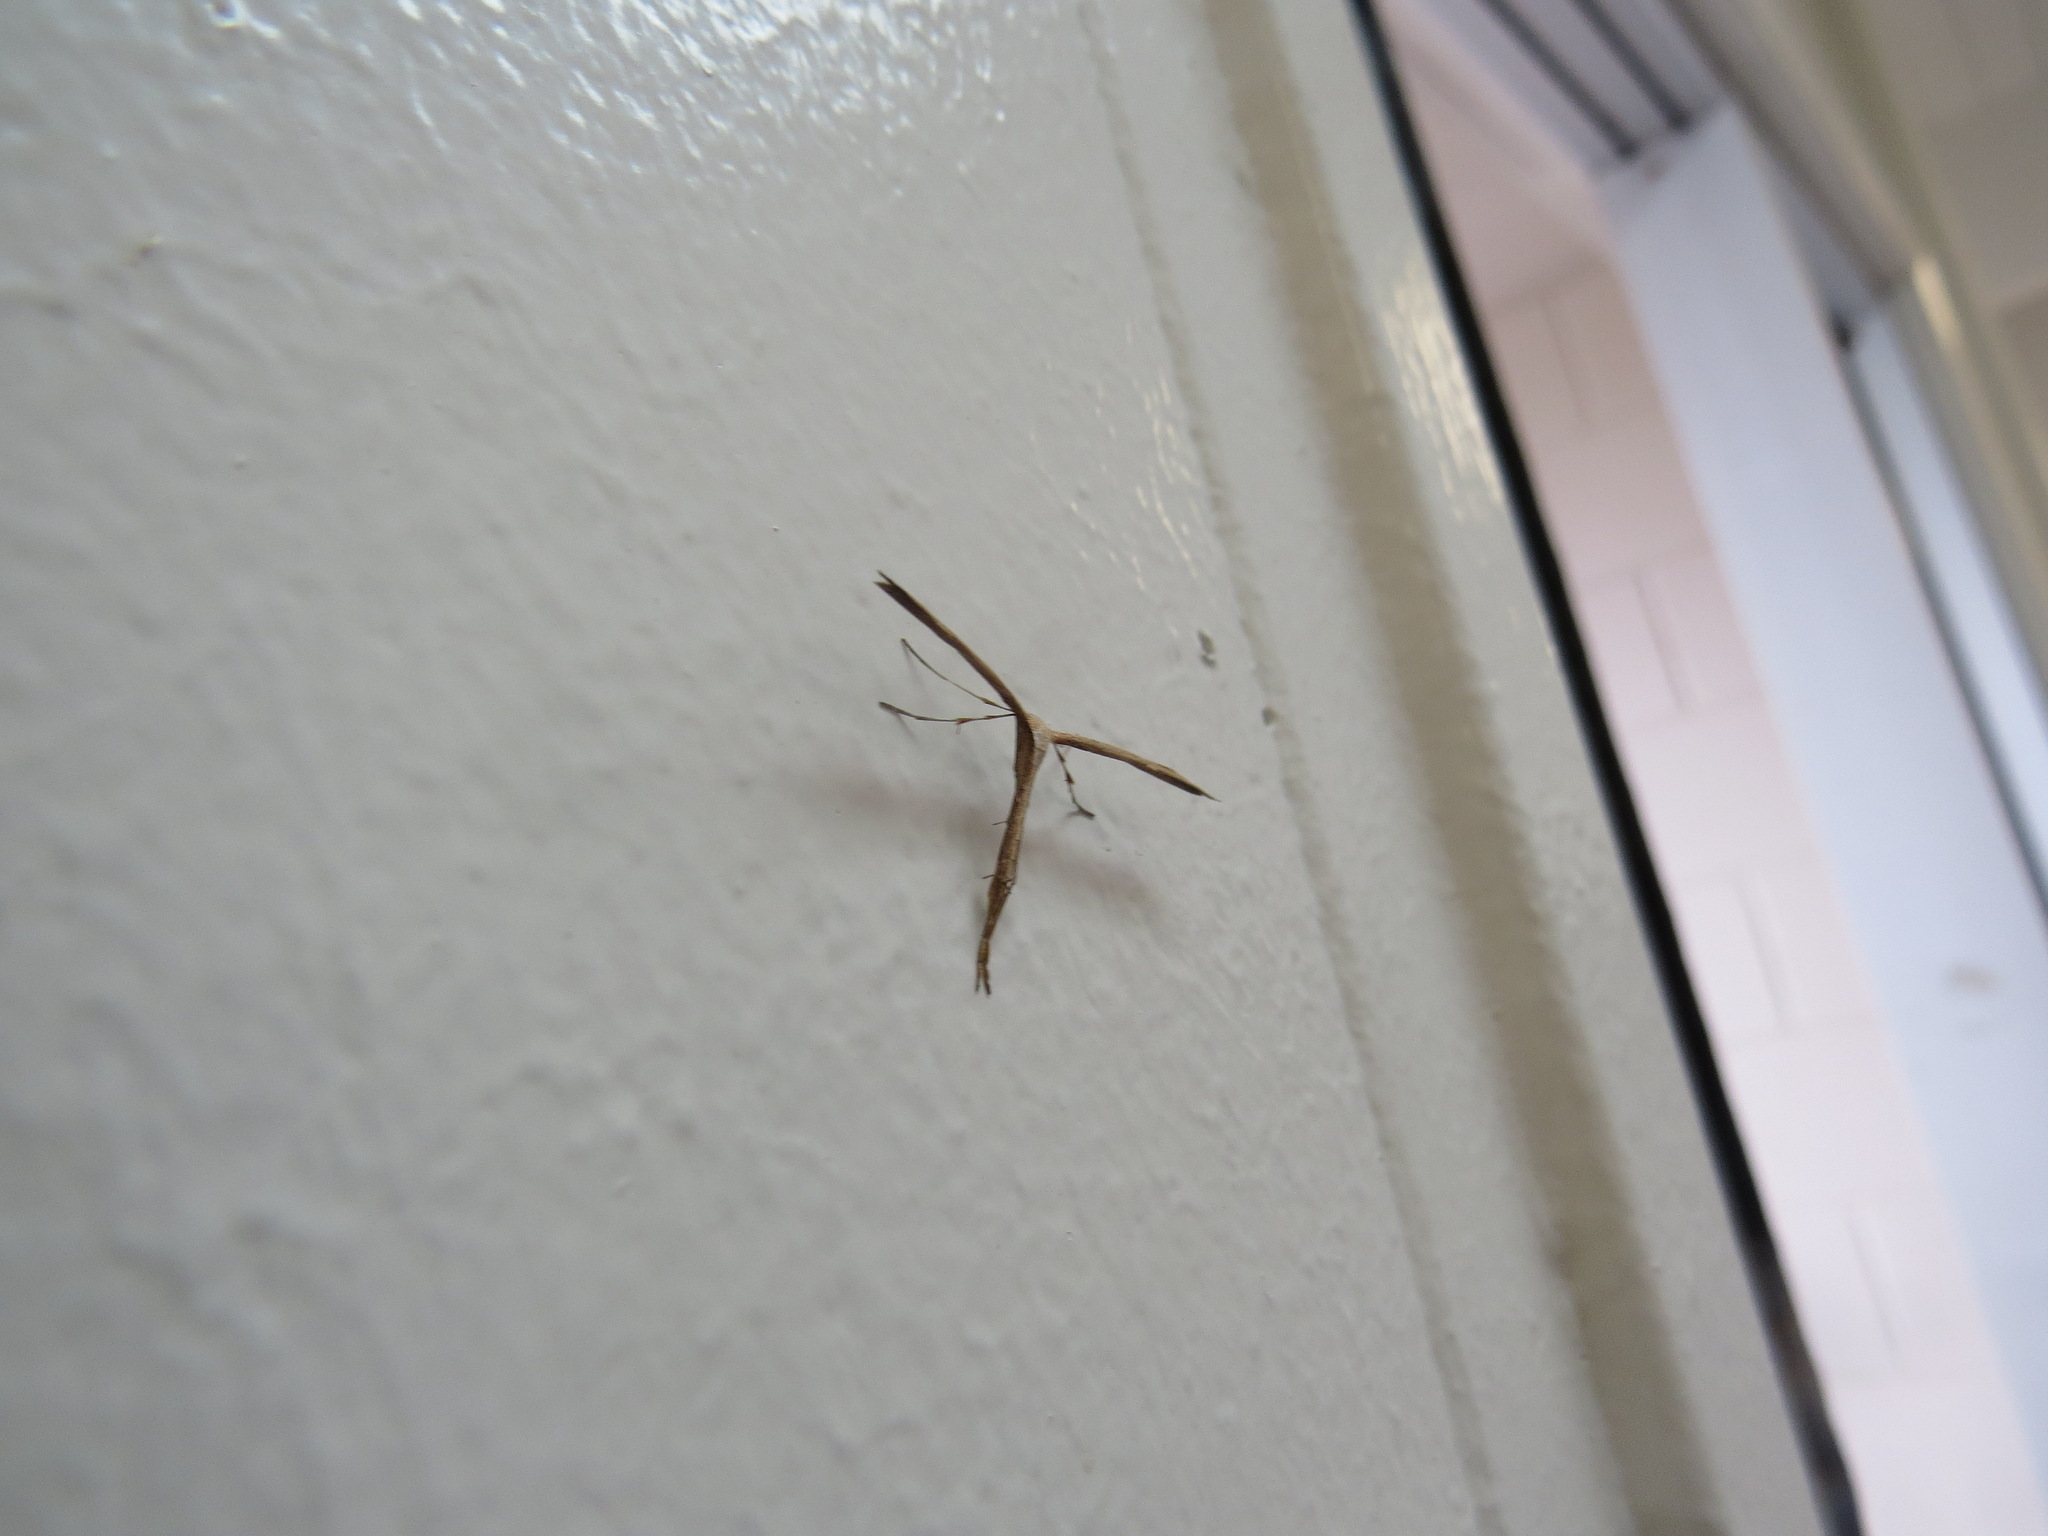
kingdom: Animalia
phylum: Arthropoda
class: Insecta
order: Lepidoptera
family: Pterophoridae
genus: Emmelina
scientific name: Emmelina monodactyla
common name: Common plume
